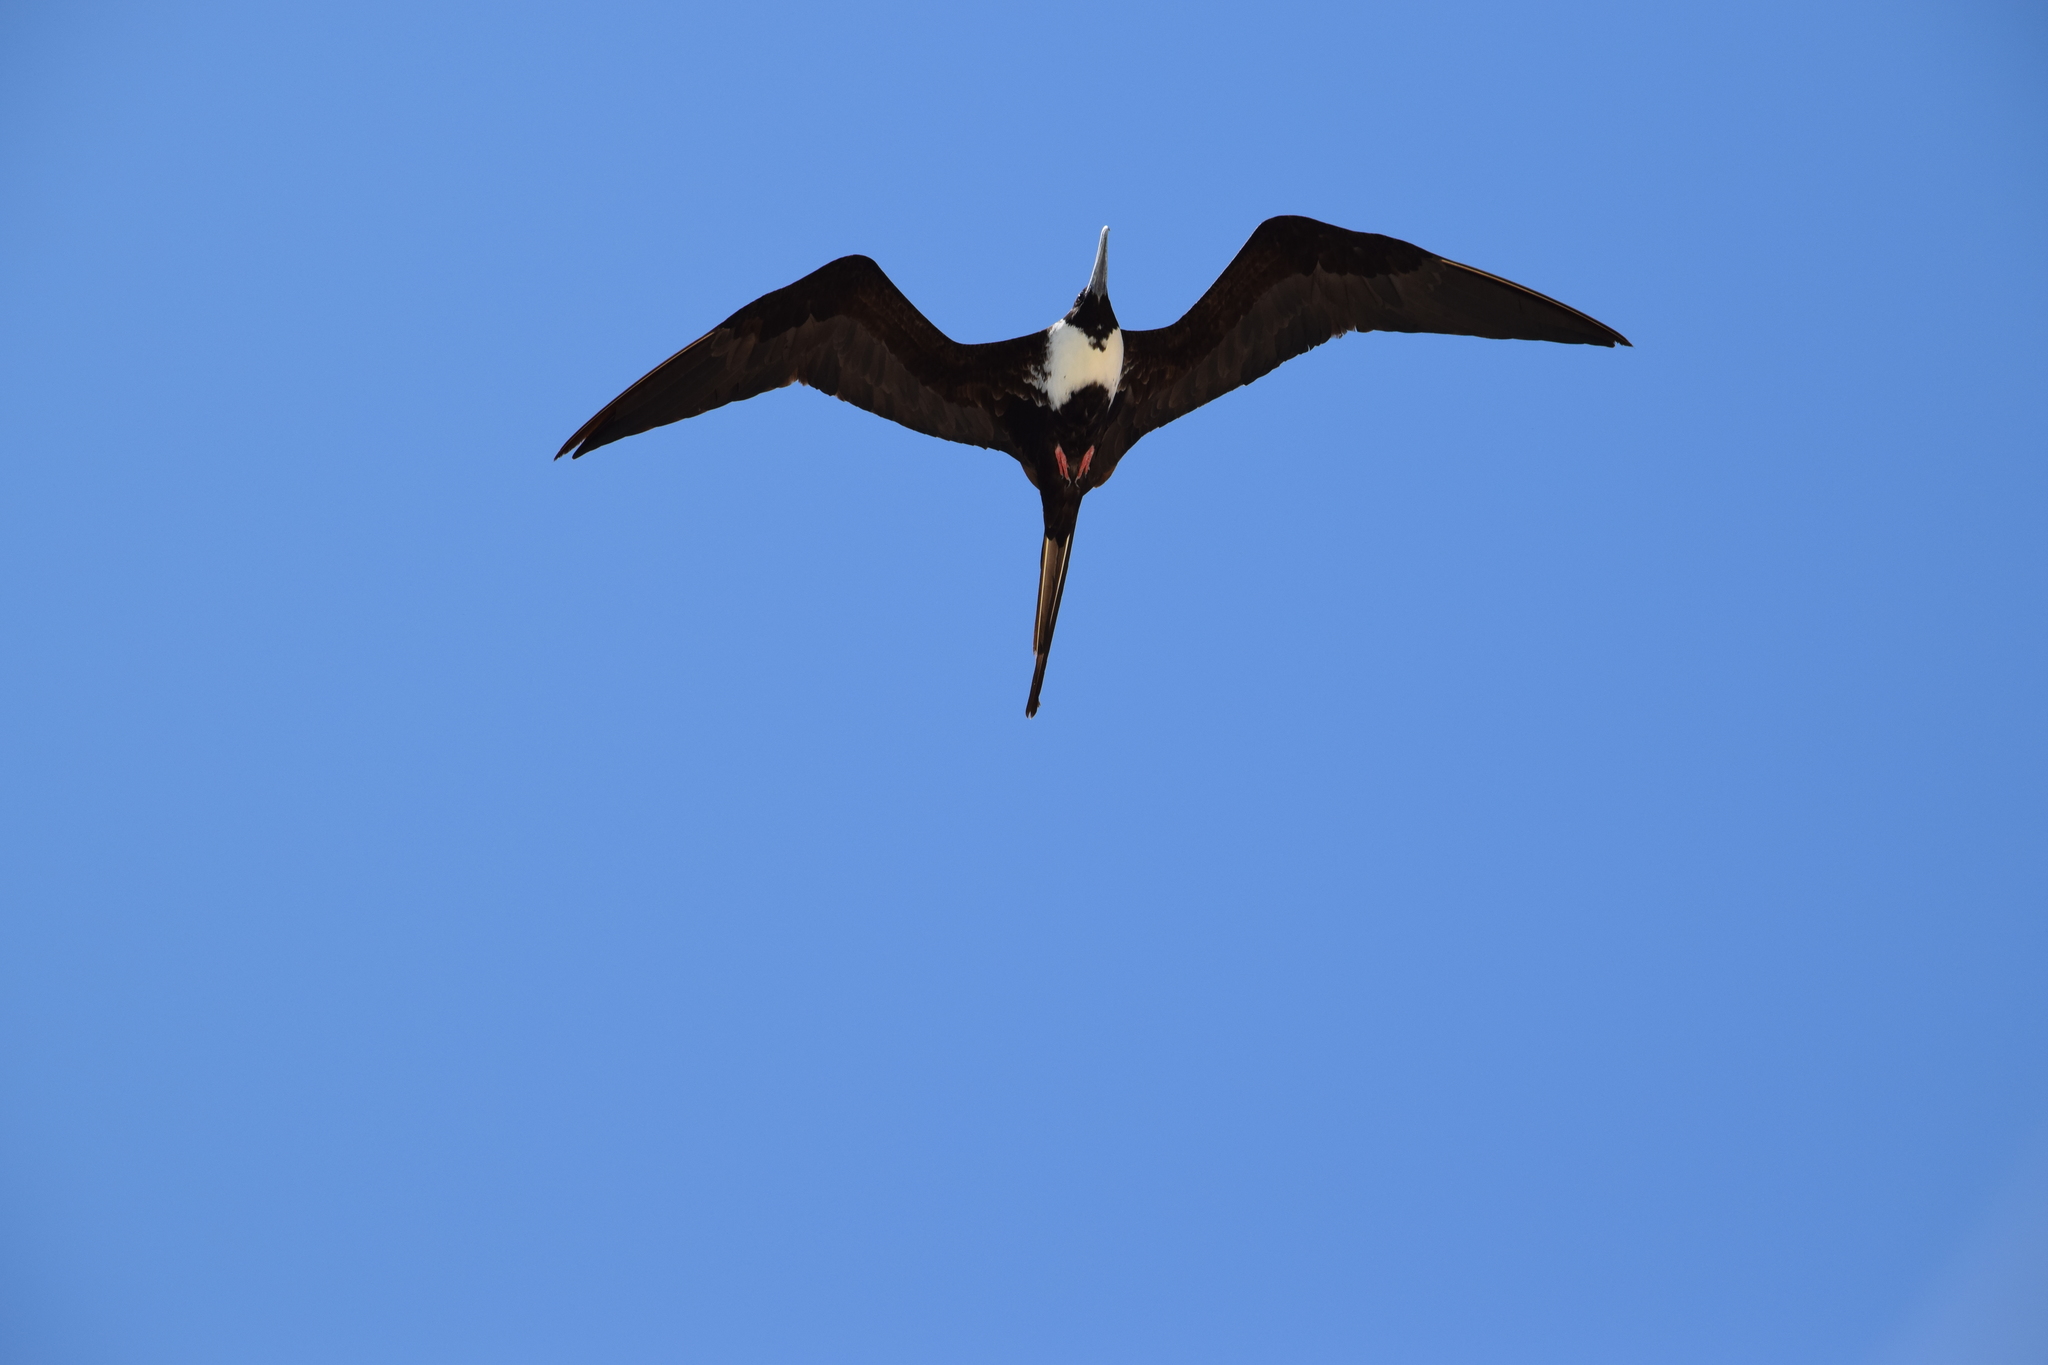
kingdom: Animalia
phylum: Chordata
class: Aves
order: Suliformes
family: Fregatidae
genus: Fregata
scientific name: Fregata magnificens
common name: Magnificent frigatebird
